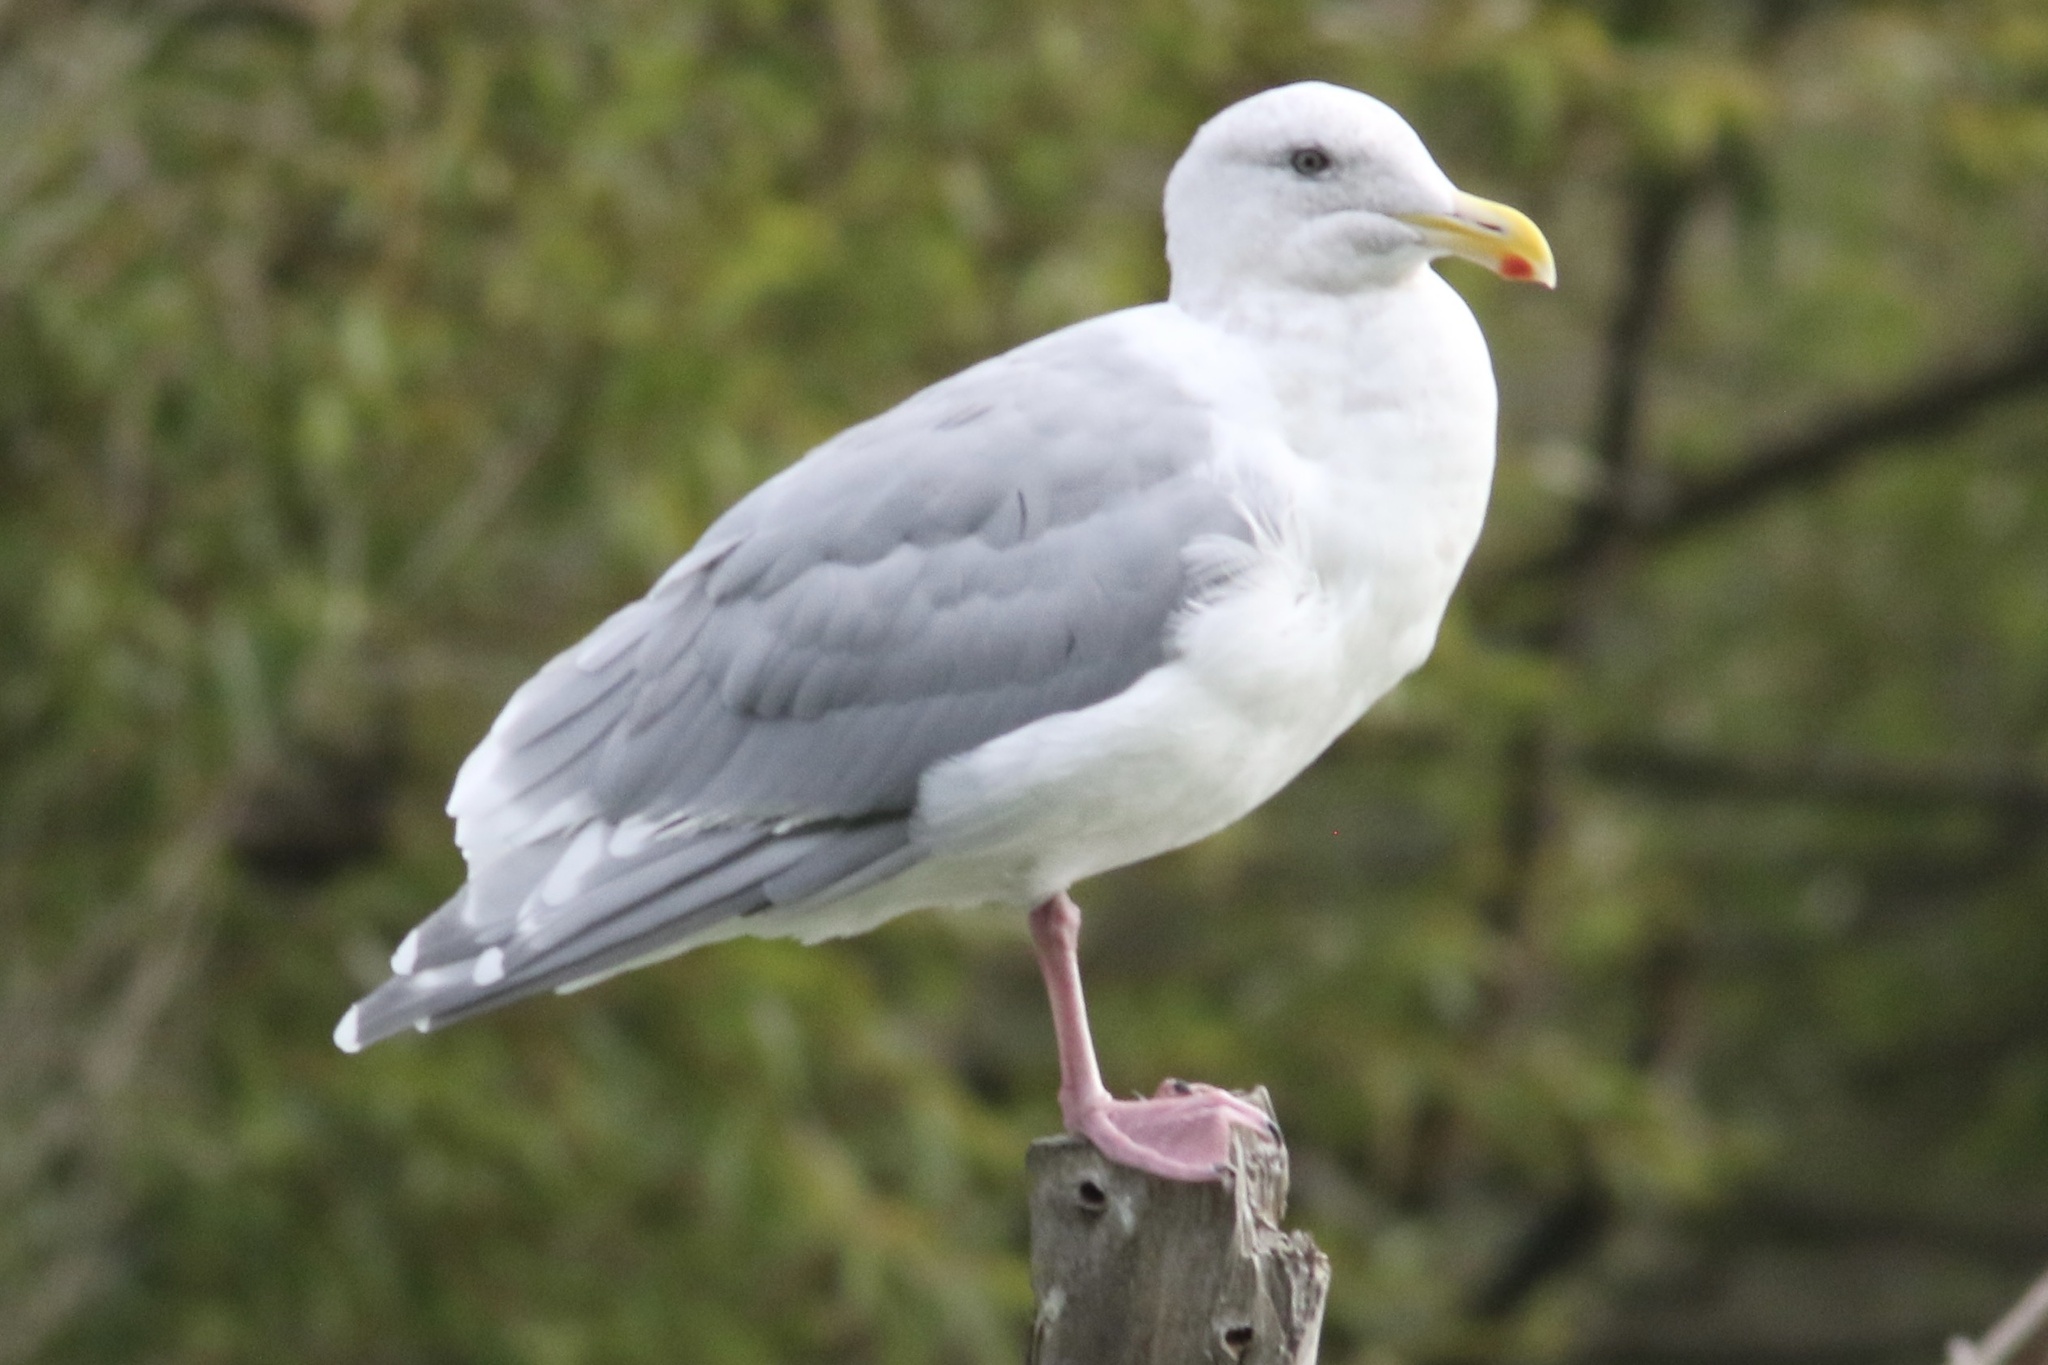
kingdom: Animalia
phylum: Chordata
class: Aves
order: Charadriiformes
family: Laridae
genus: Larus
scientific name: Larus glaucescens
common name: Glaucous-winged gull
